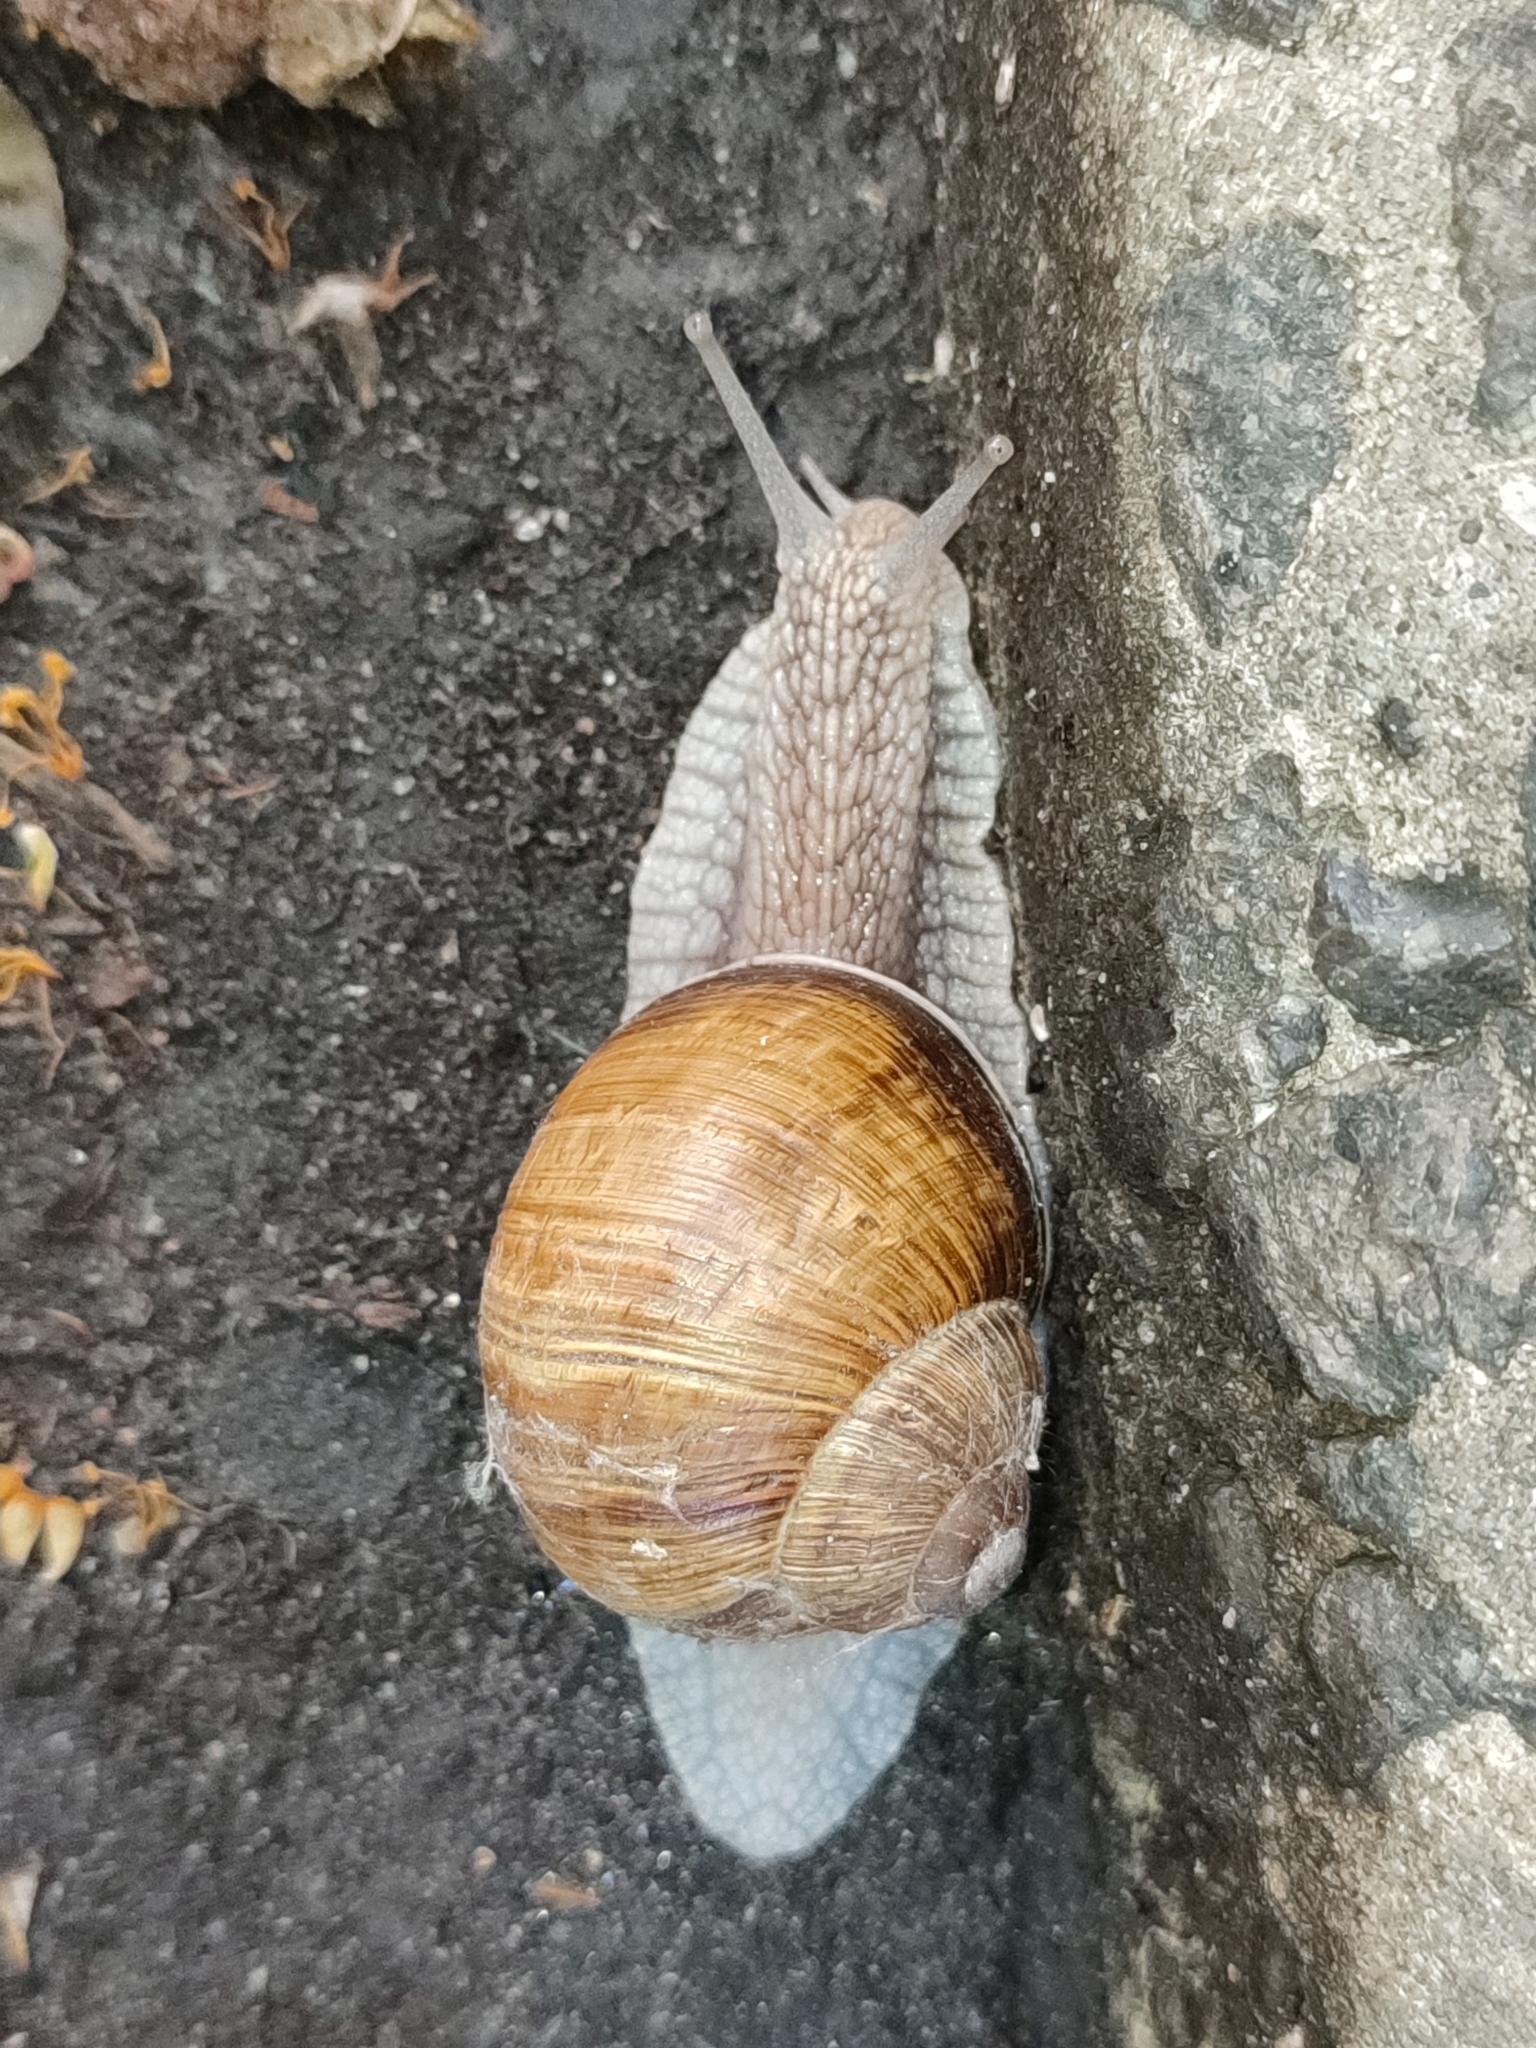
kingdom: Animalia
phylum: Mollusca
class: Gastropoda
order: Stylommatophora
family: Helicidae
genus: Helix
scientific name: Helix pomatia
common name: Roman snail
